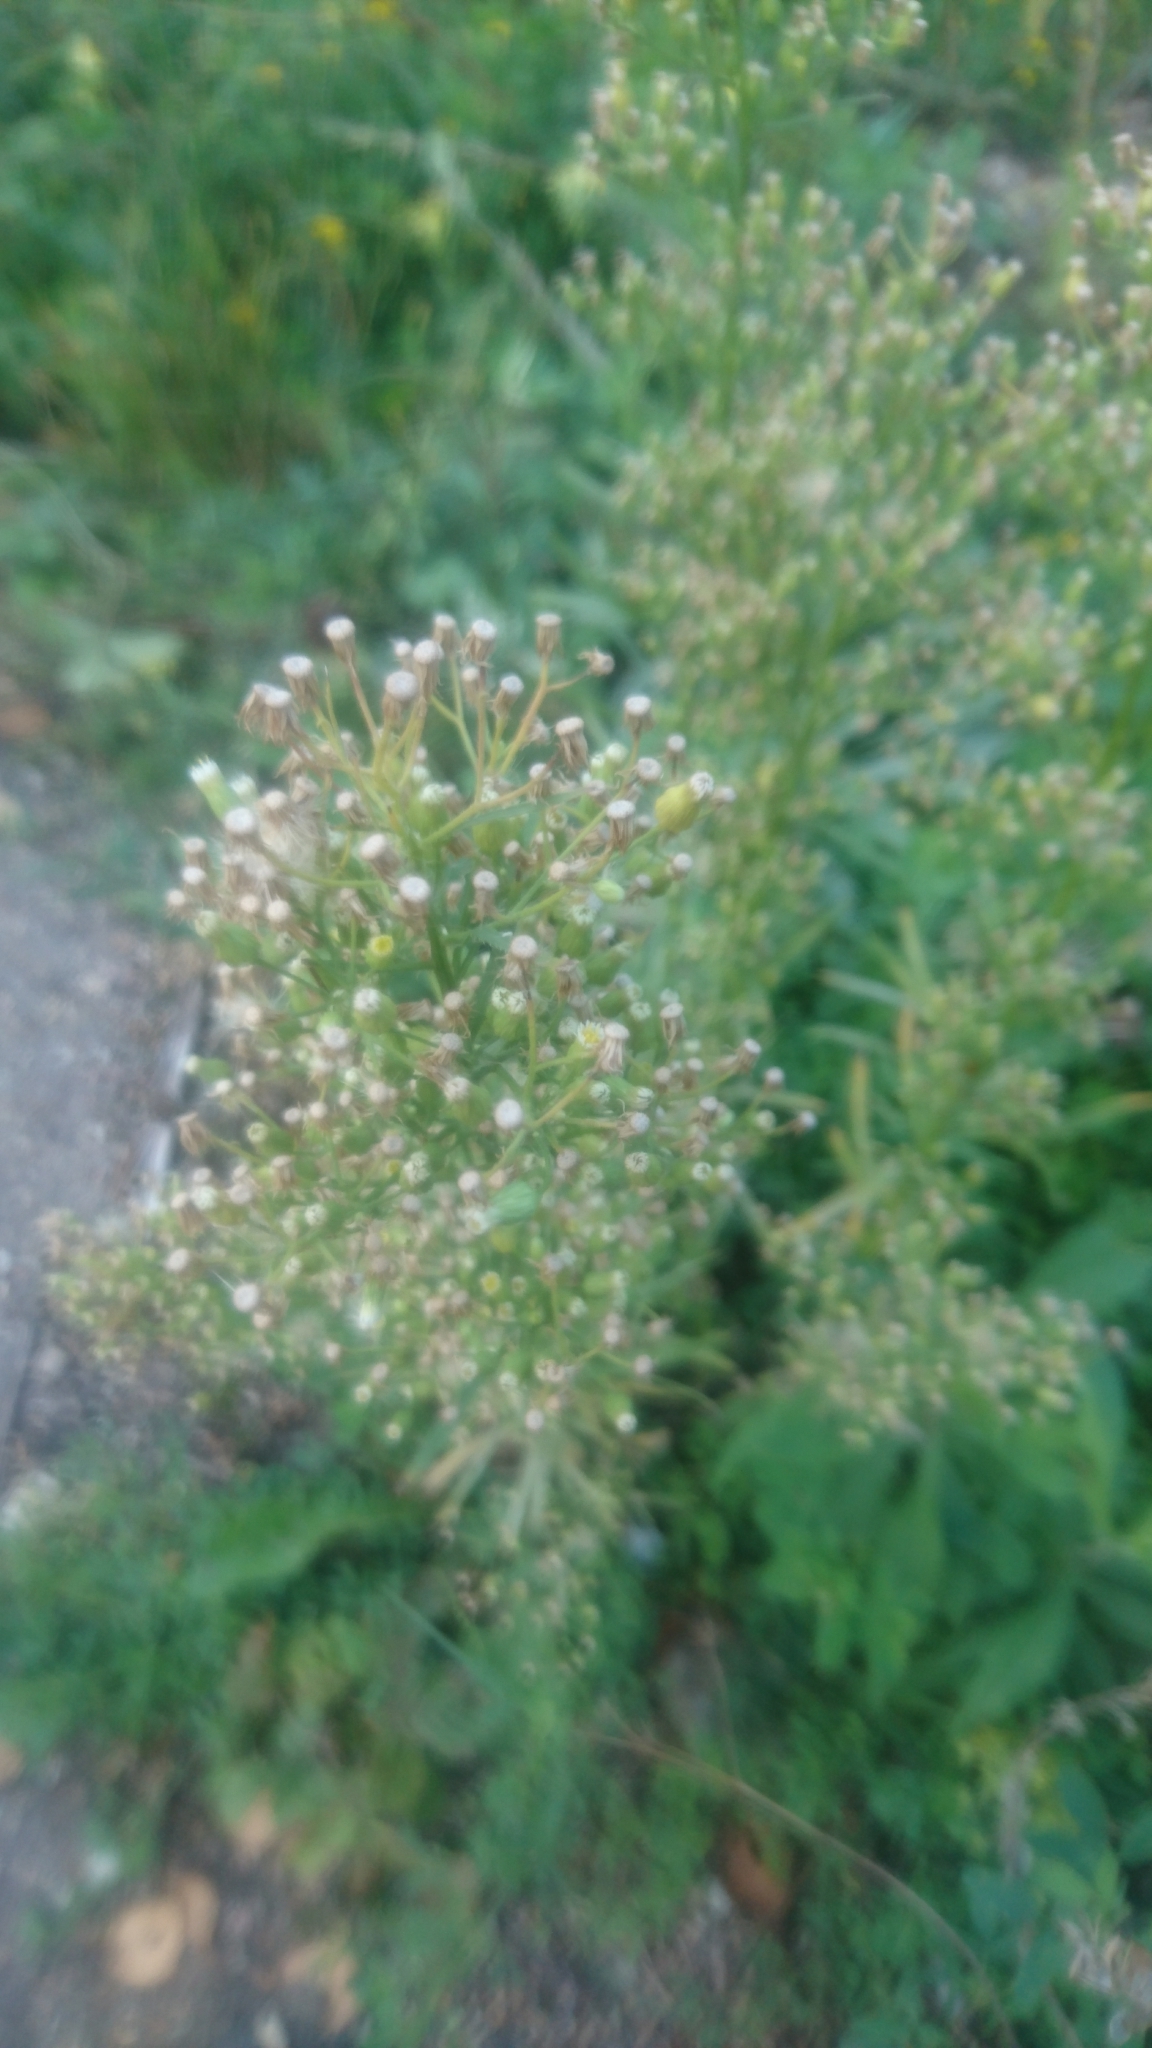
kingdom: Plantae
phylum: Tracheophyta
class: Magnoliopsida
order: Asterales
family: Asteraceae
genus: Erigeron
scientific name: Erigeron canadensis
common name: Canadian fleabane
